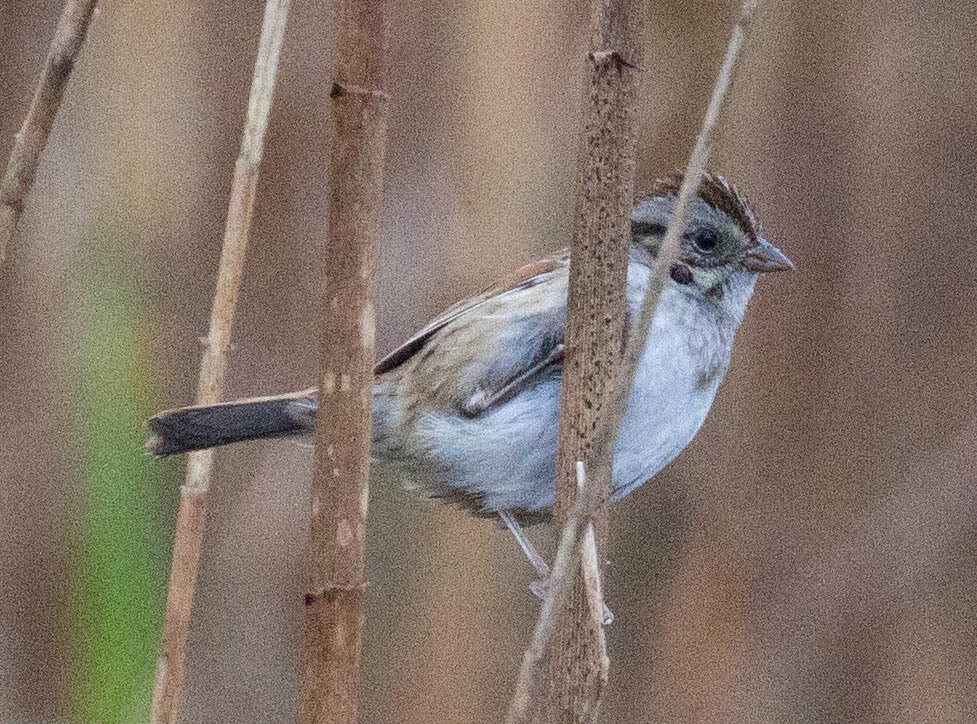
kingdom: Animalia
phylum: Chordata
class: Aves
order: Passeriformes
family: Passerellidae
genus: Melospiza
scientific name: Melospiza georgiana
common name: Swamp sparrow
